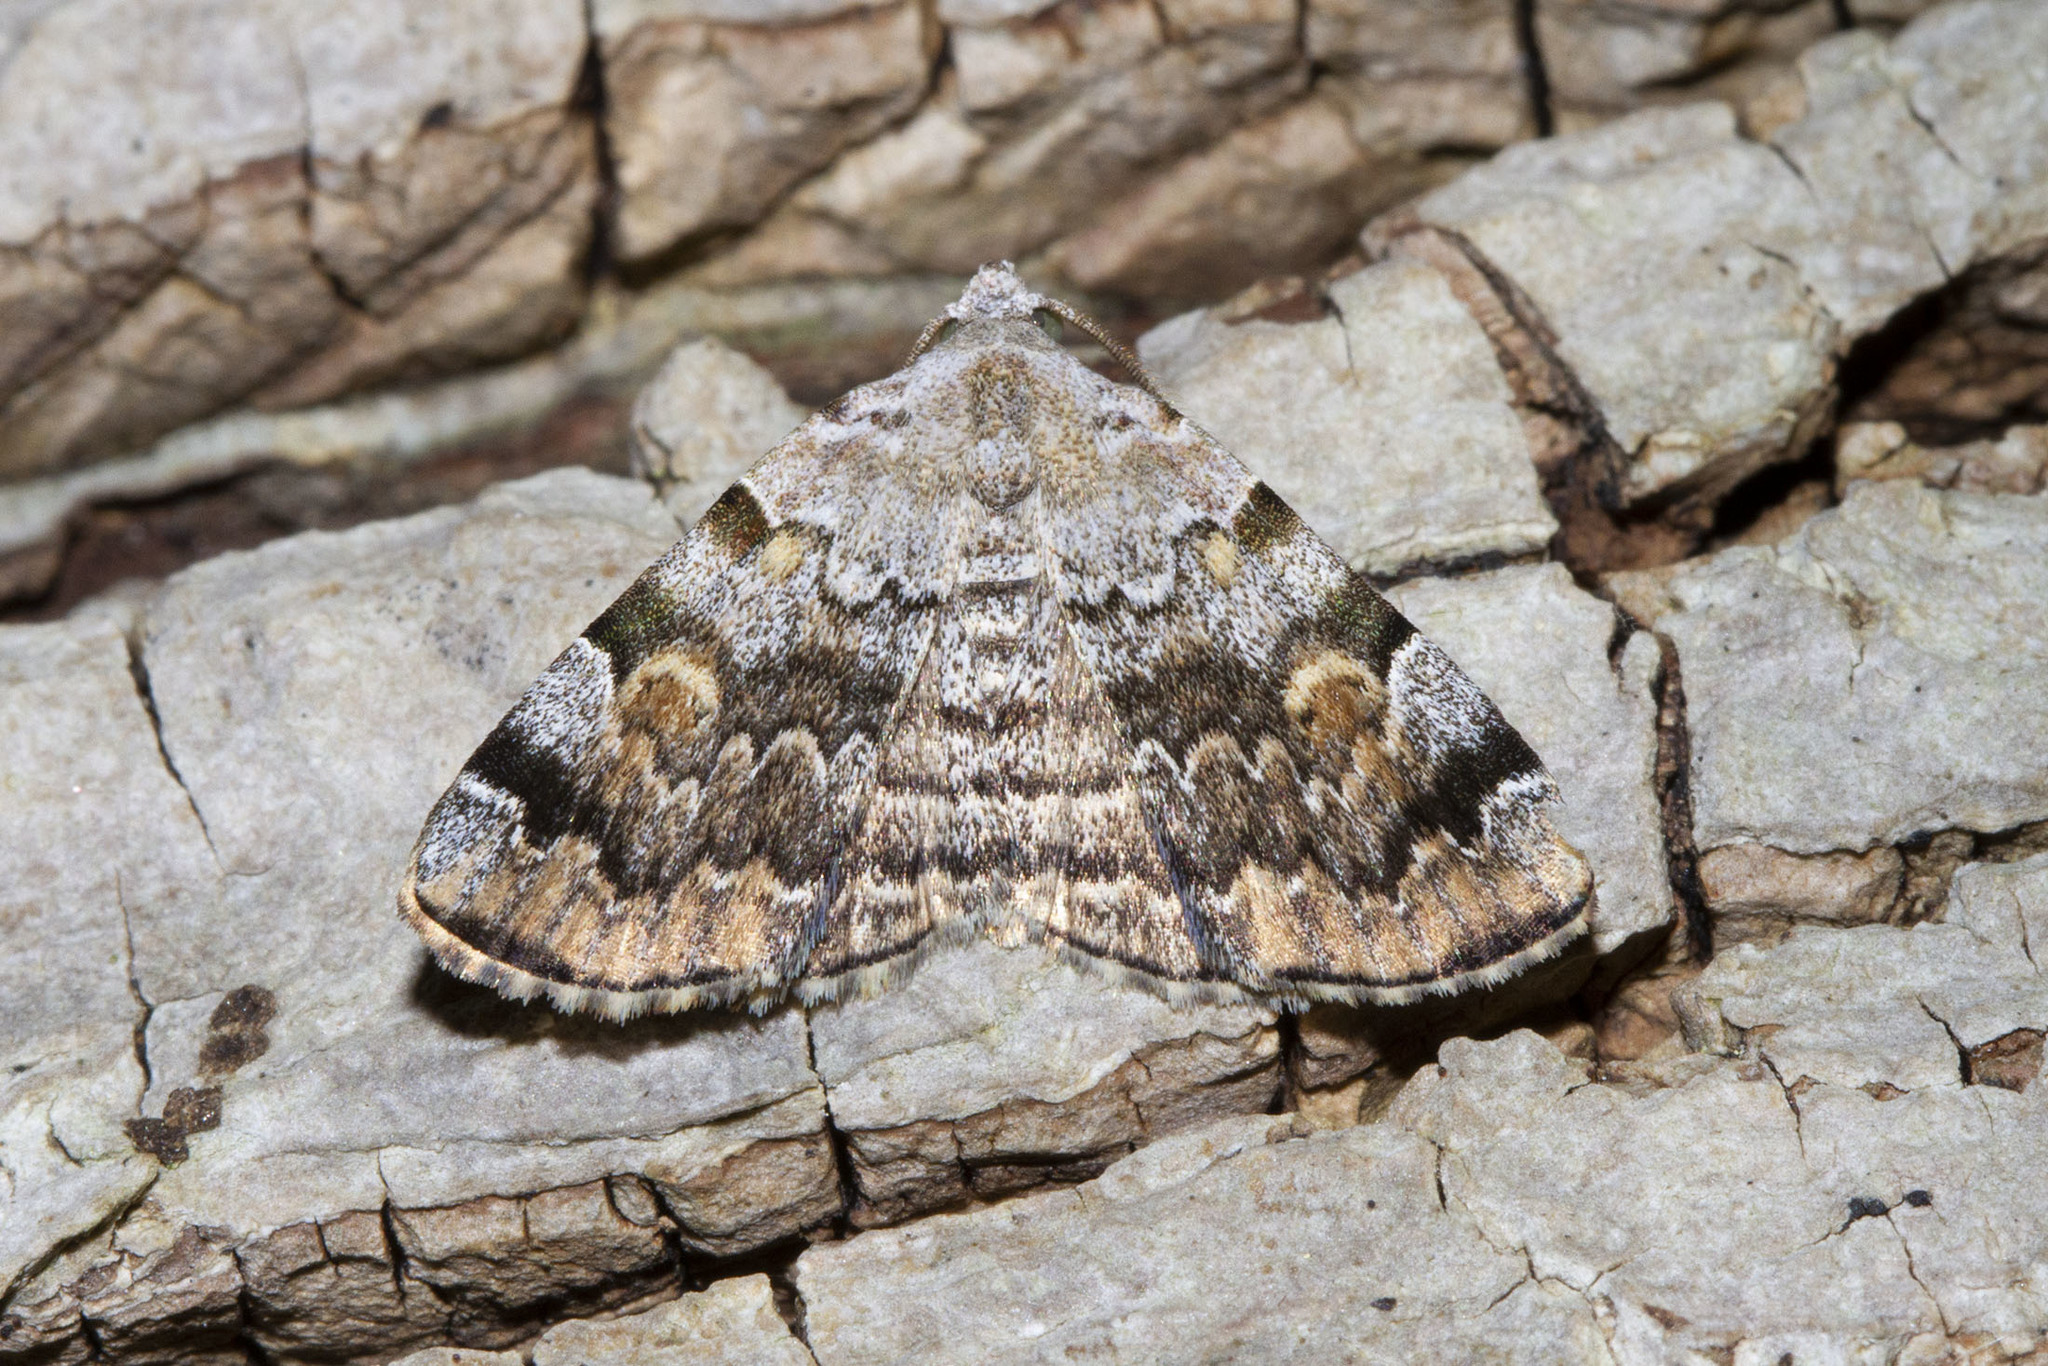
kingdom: Animalia
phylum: Arthropoda
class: Insecta
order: Lepidoptera
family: Erebidae
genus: Idia
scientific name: Idia americalis
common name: American idia moth
